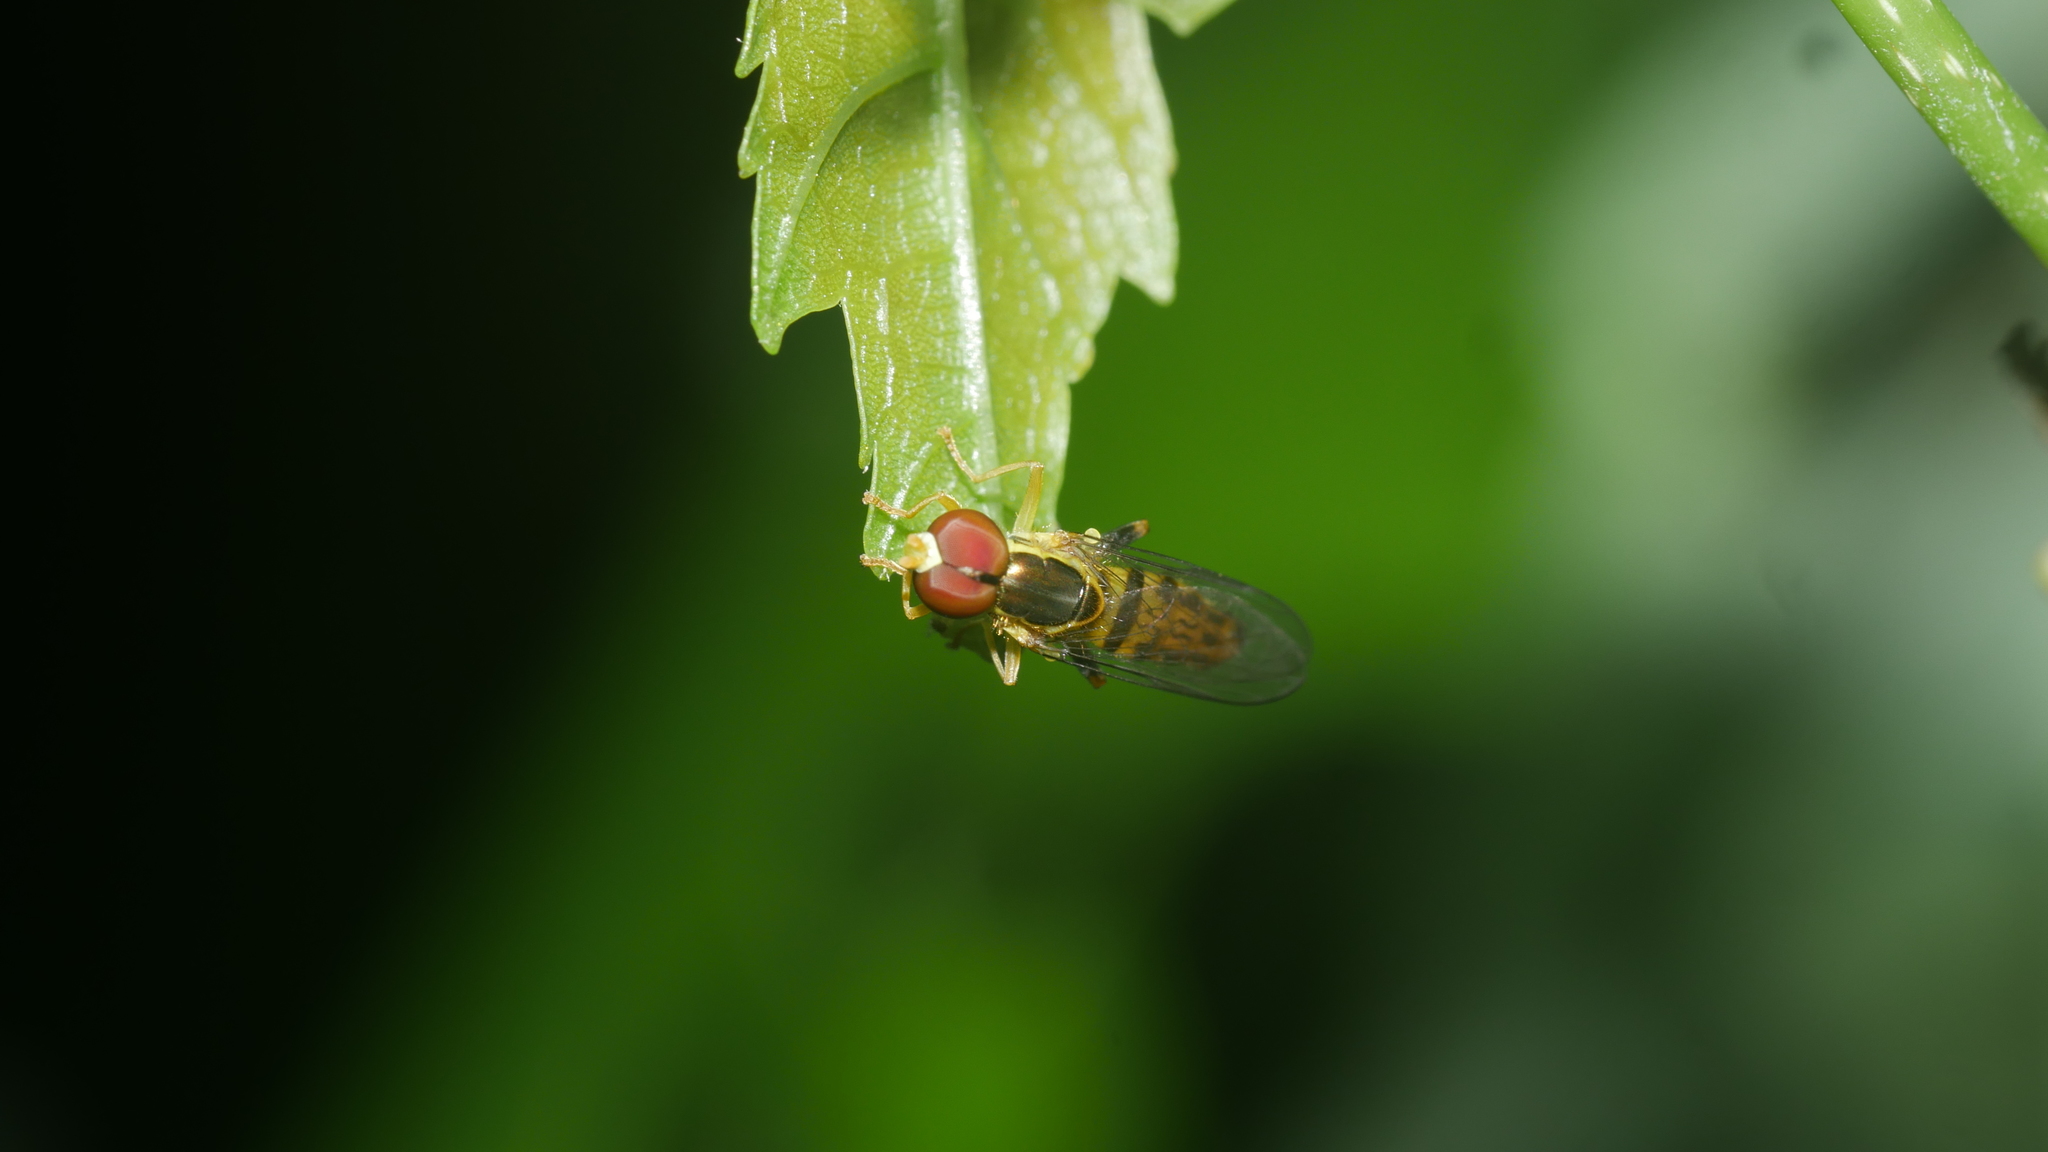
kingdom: Animalia
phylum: Arthropoda
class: Insecta
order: Diptera
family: Syrphidae
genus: Toxomerus
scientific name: Toxomerus geminatus
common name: Eastern calligrapher
